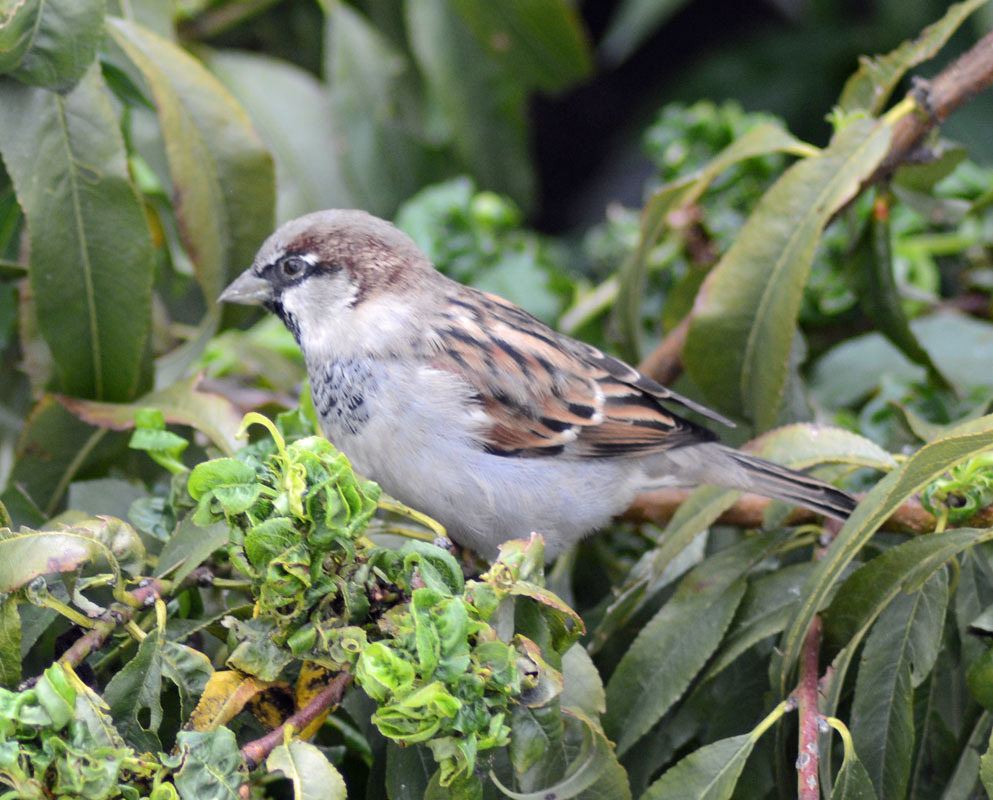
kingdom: Animalia
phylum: Chordata
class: Aves
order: Passeriformes
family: Passeridae
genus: Passer
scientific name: Passer domesticus
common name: House sparrow
